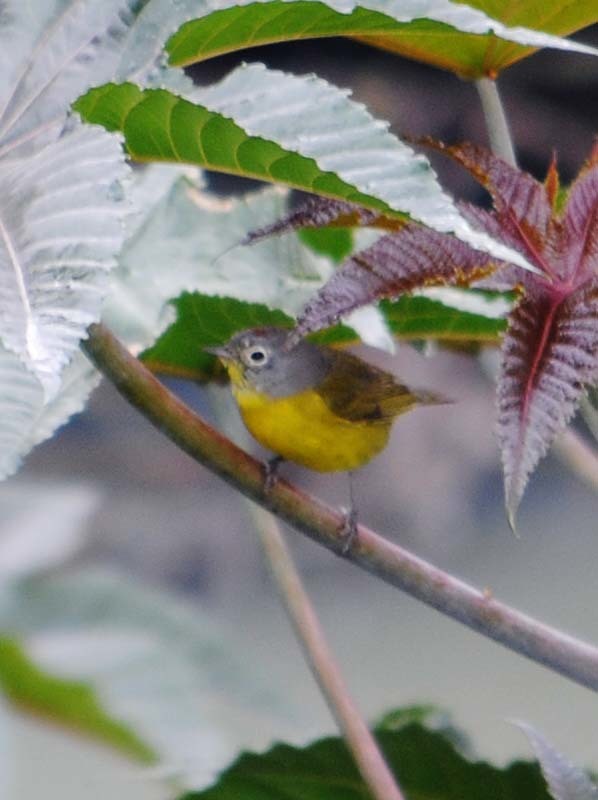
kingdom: Animalia
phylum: Chordata
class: Aves
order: Passeriformes
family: Parulidae
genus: Leiothlypis
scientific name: Leiothlypis ruficapilla
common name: Nashville warbler
